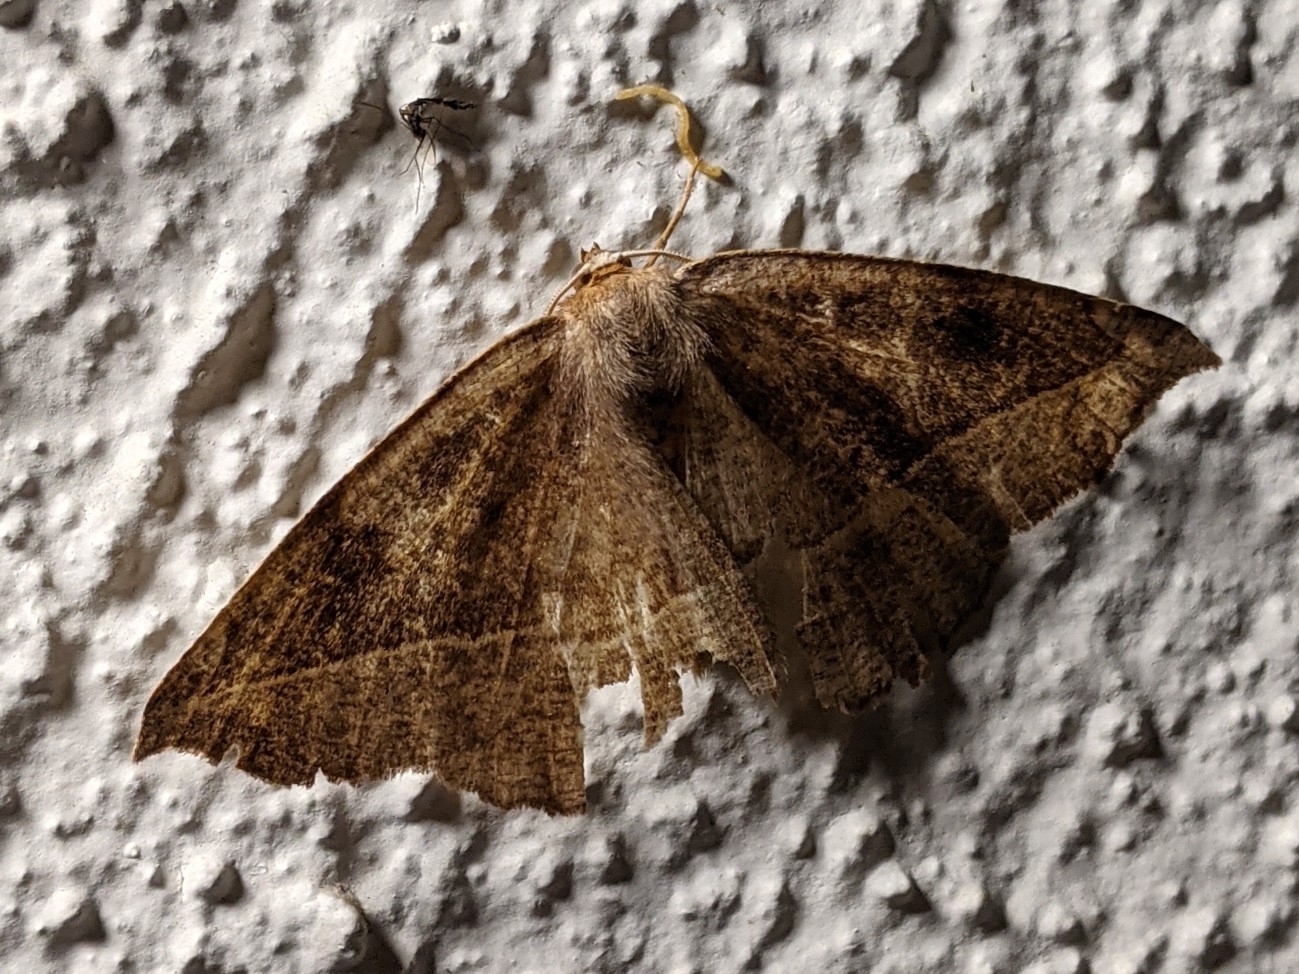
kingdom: Animalia
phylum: Arthropoda
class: Insecta
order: Lepidoptera
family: Geometridae
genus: Eutrapela
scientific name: Eutrapela clemataria
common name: Curved-toothed geometer
